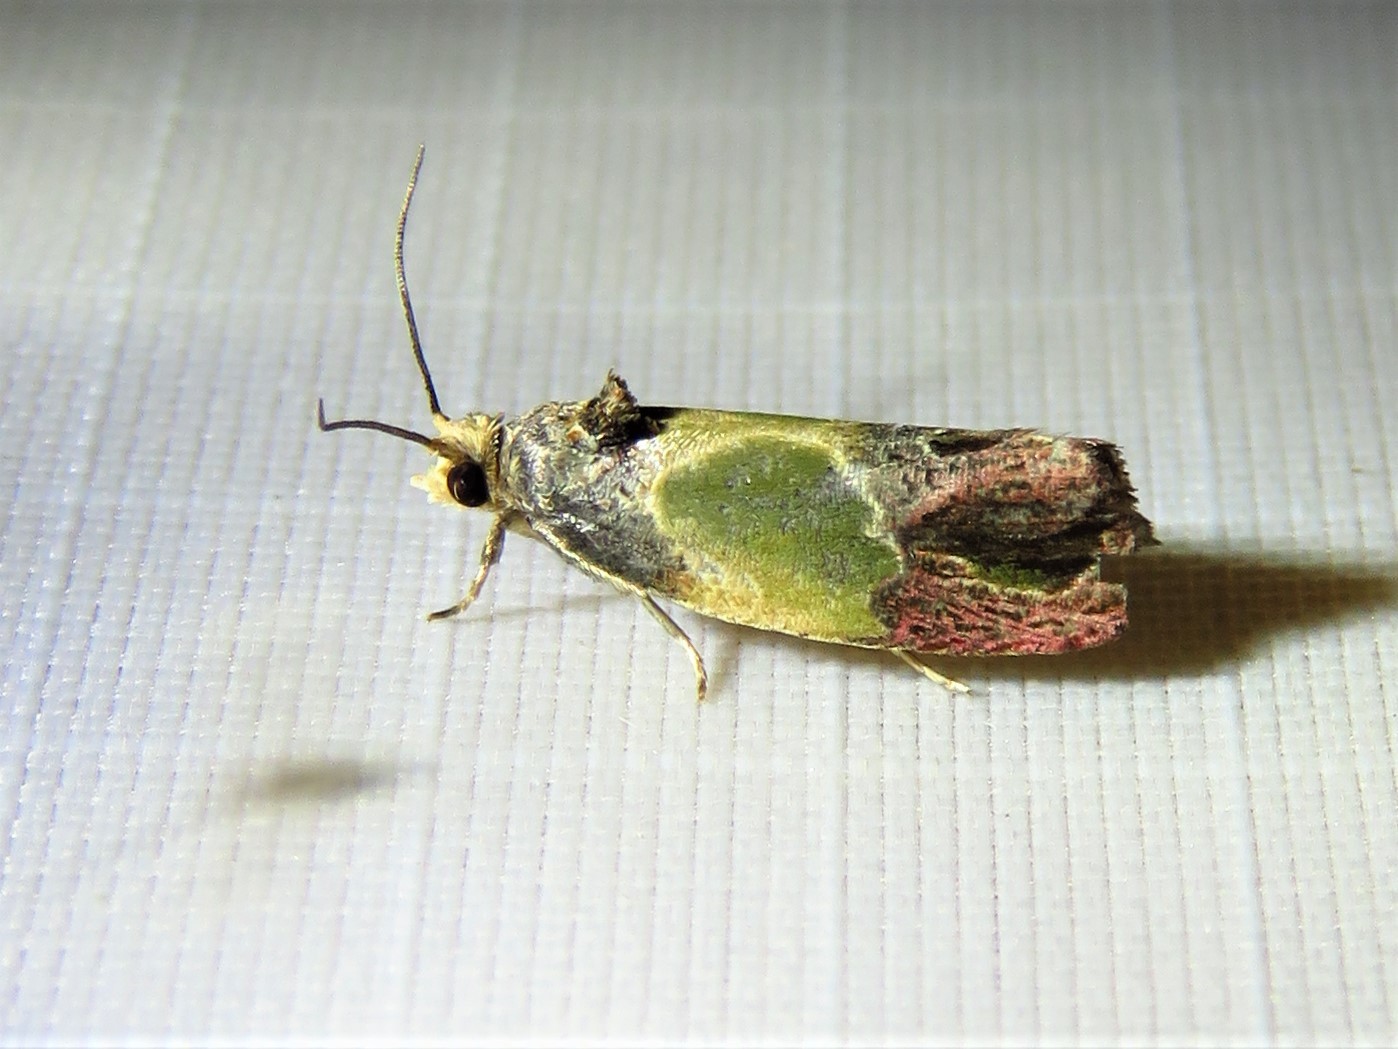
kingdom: Animalia
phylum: Arthropoda
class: Insecta
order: Lepidoptera
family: Tortricidae
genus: Eumarozia
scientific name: Eumarozia malachitana
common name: Sculptured moth
